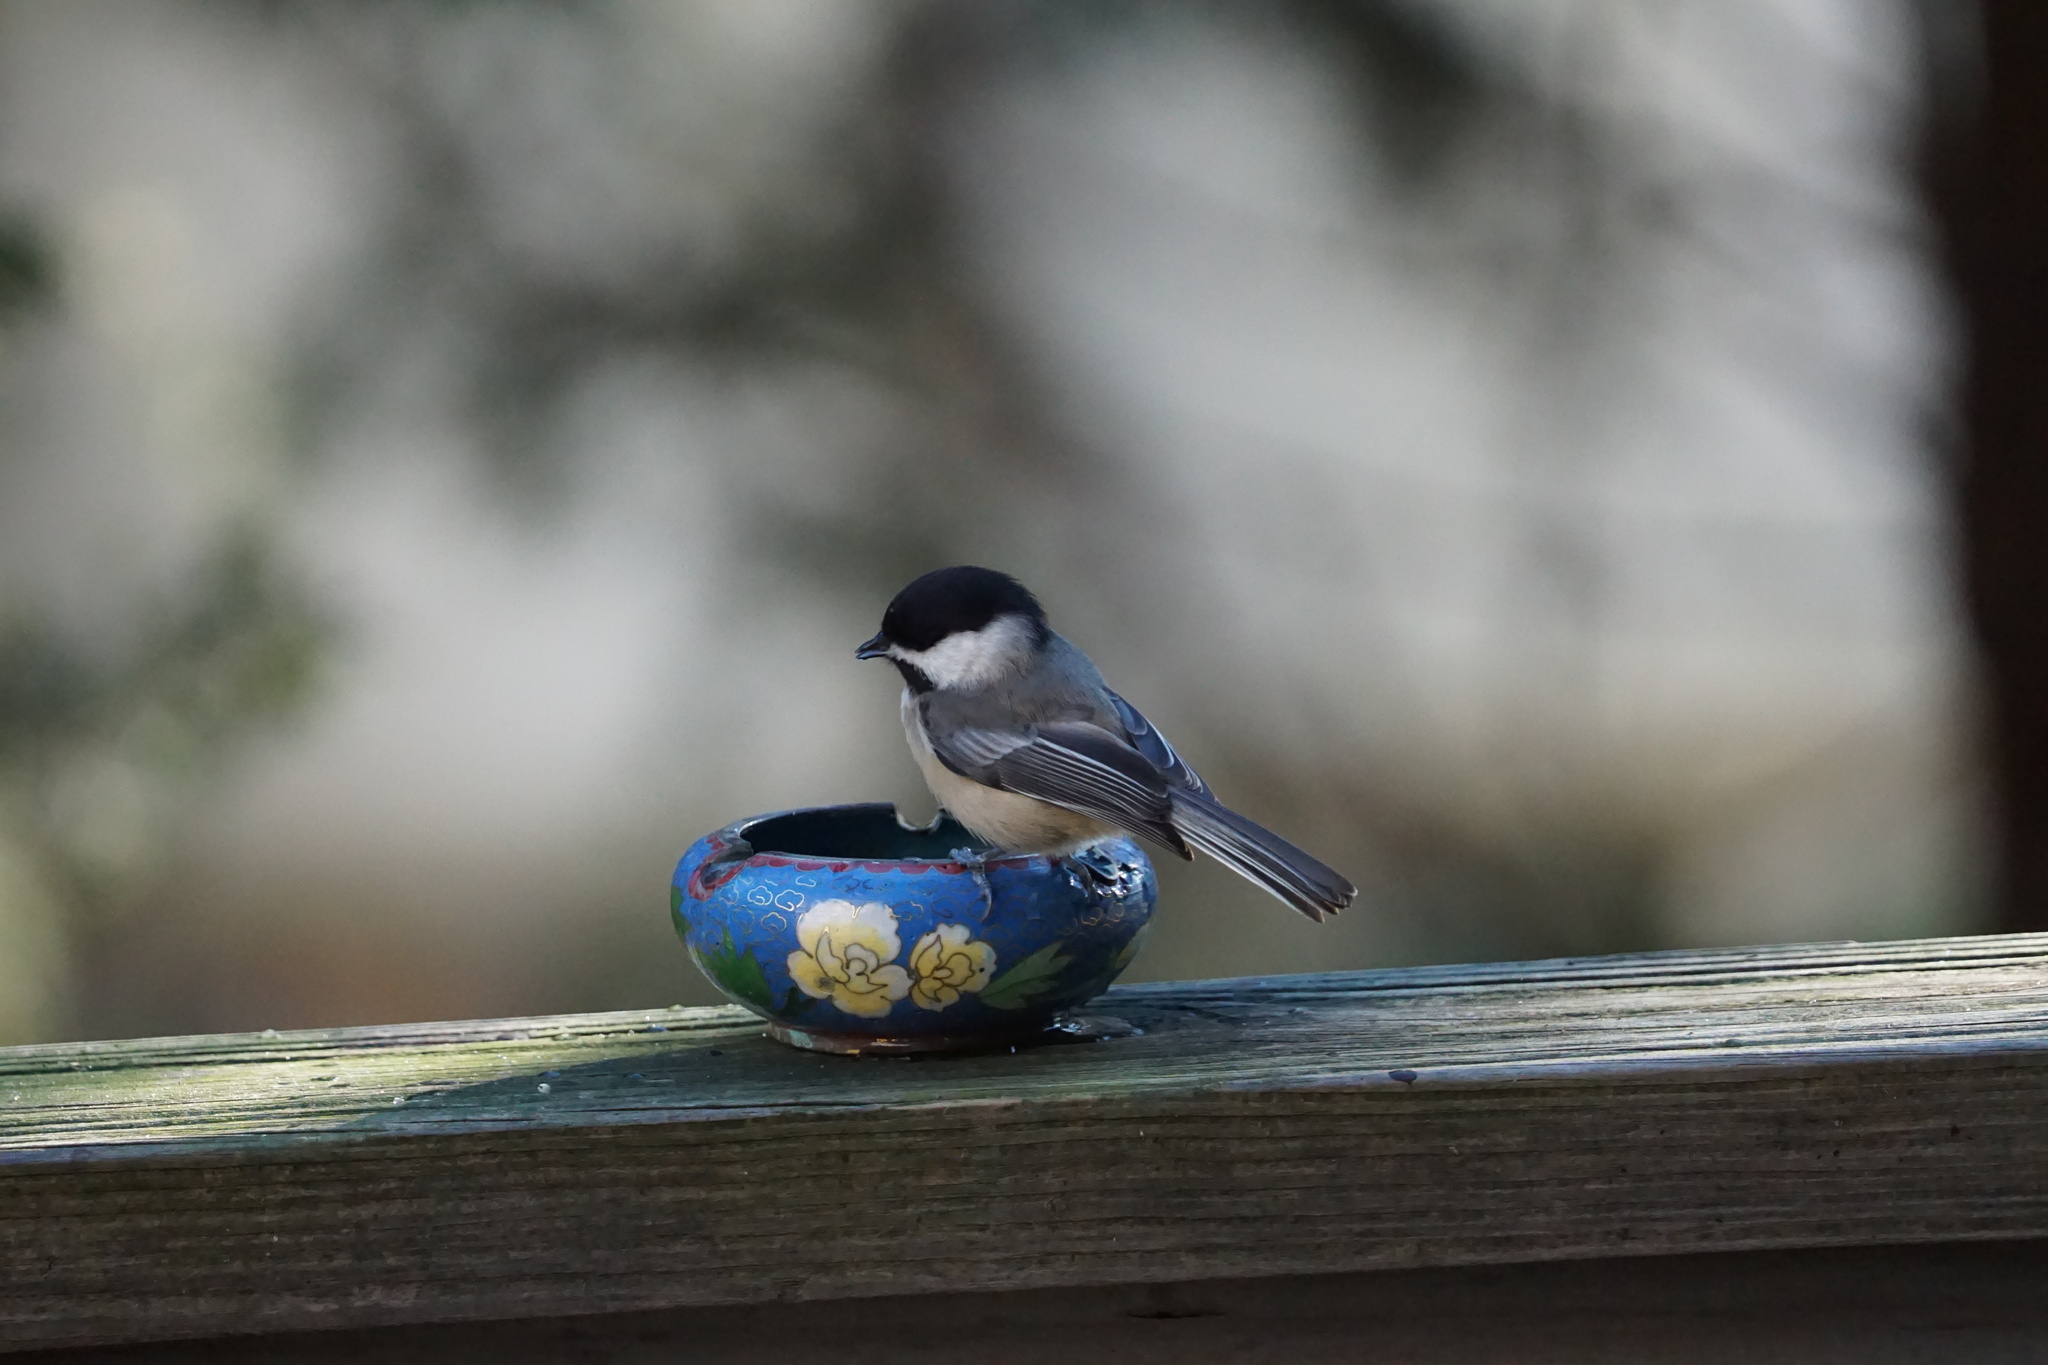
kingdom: Animalia
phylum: Chordata
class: Aves
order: Passeriformes
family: Paridae
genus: Poecile
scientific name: Poecile atricapillus
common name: Black-capped chickadee
